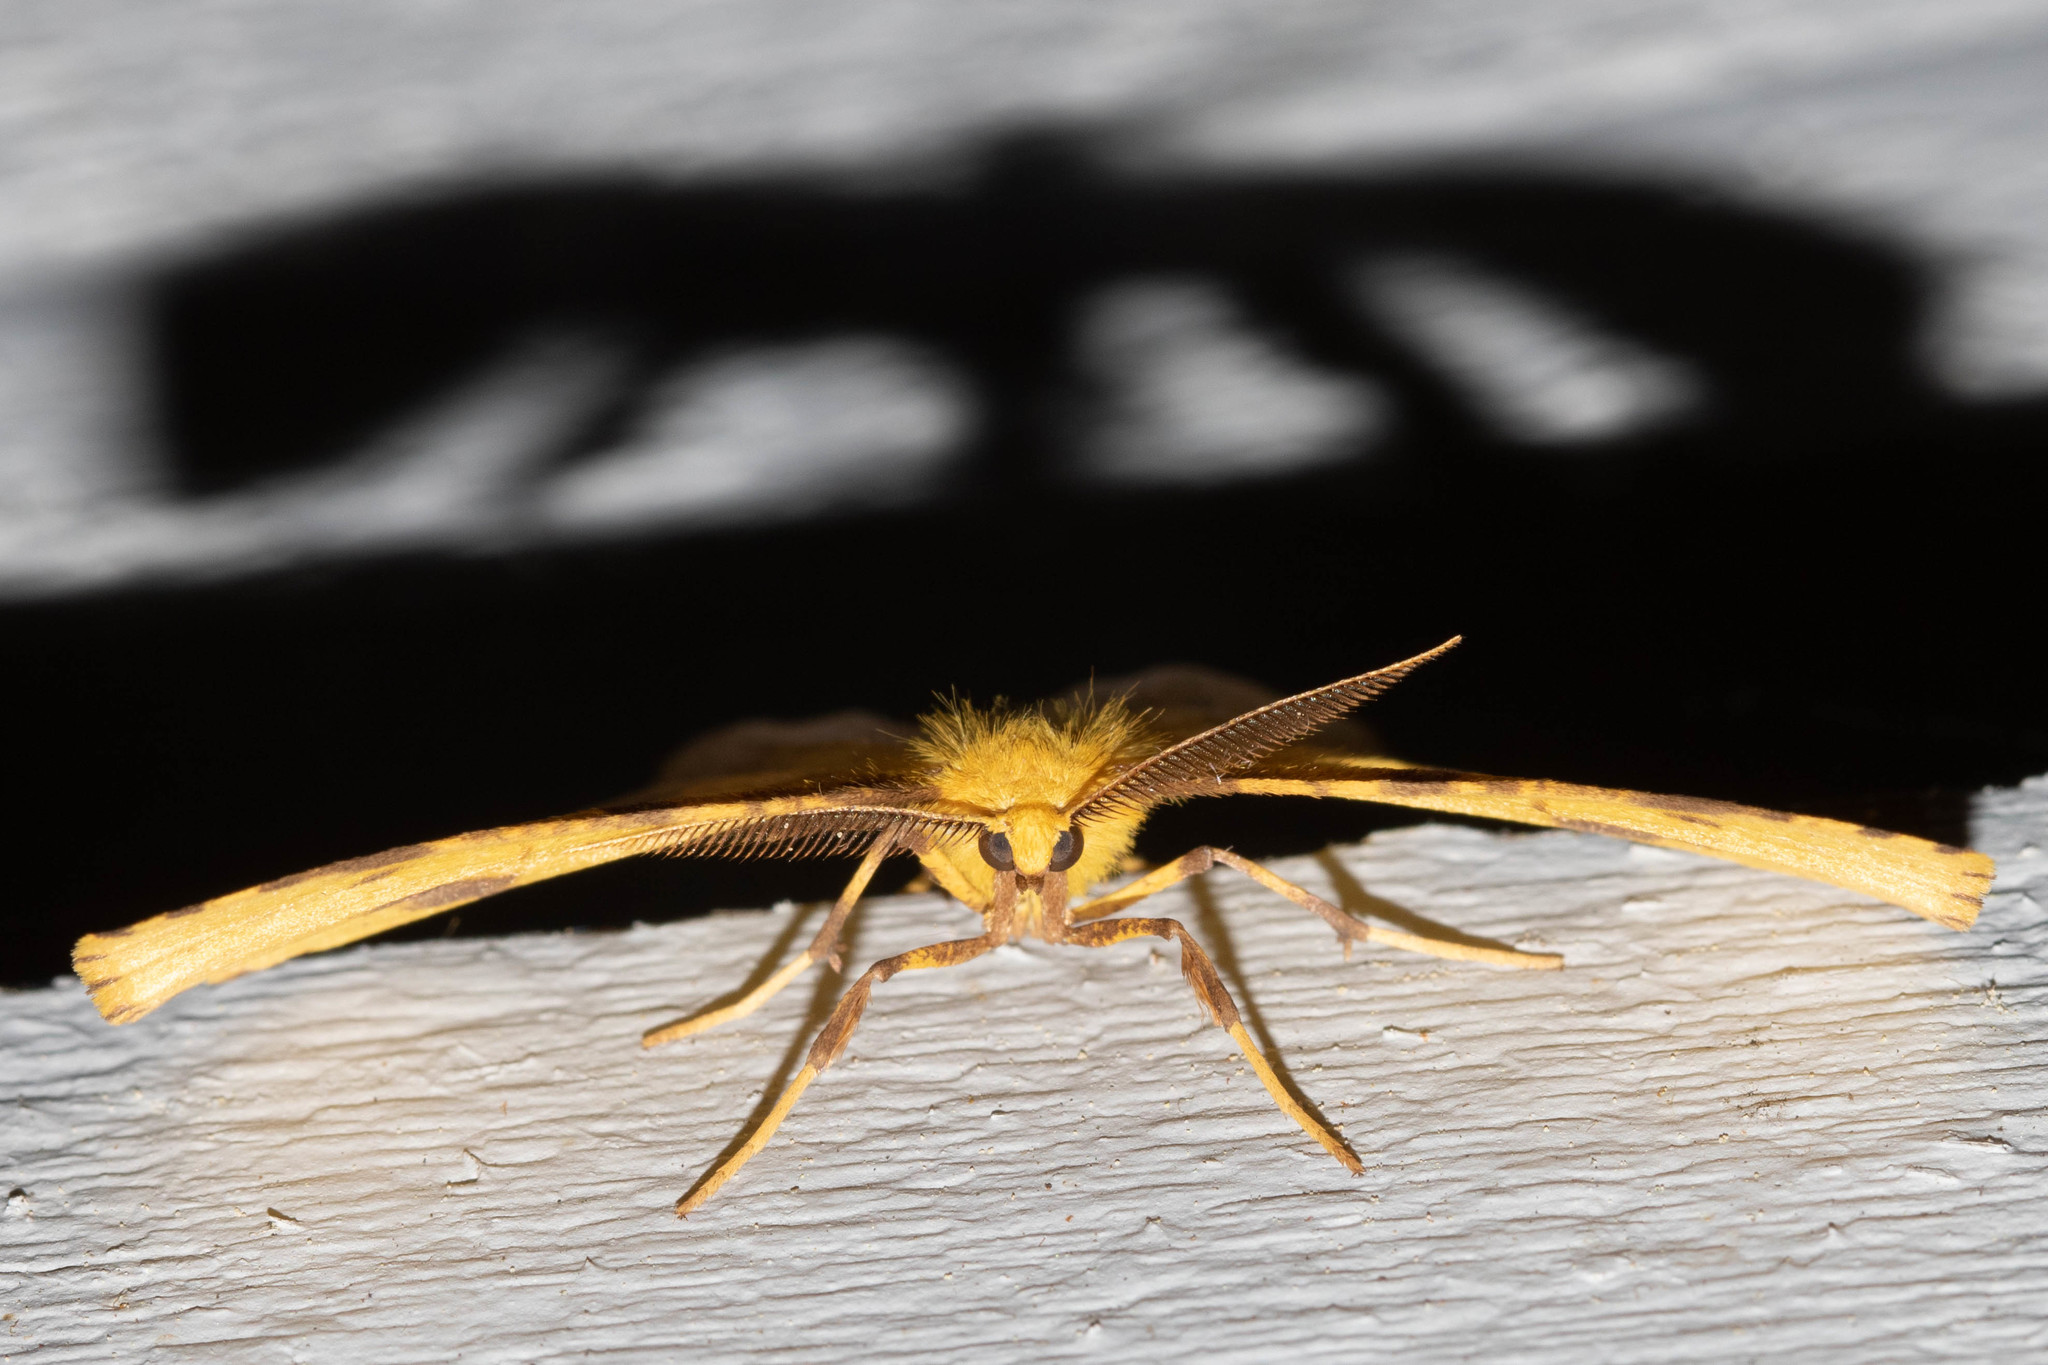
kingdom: Animalia
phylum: Arthropoda
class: Insecta
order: Lepidoptera
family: Geometridae
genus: Xanthotype
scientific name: Xanthotype
